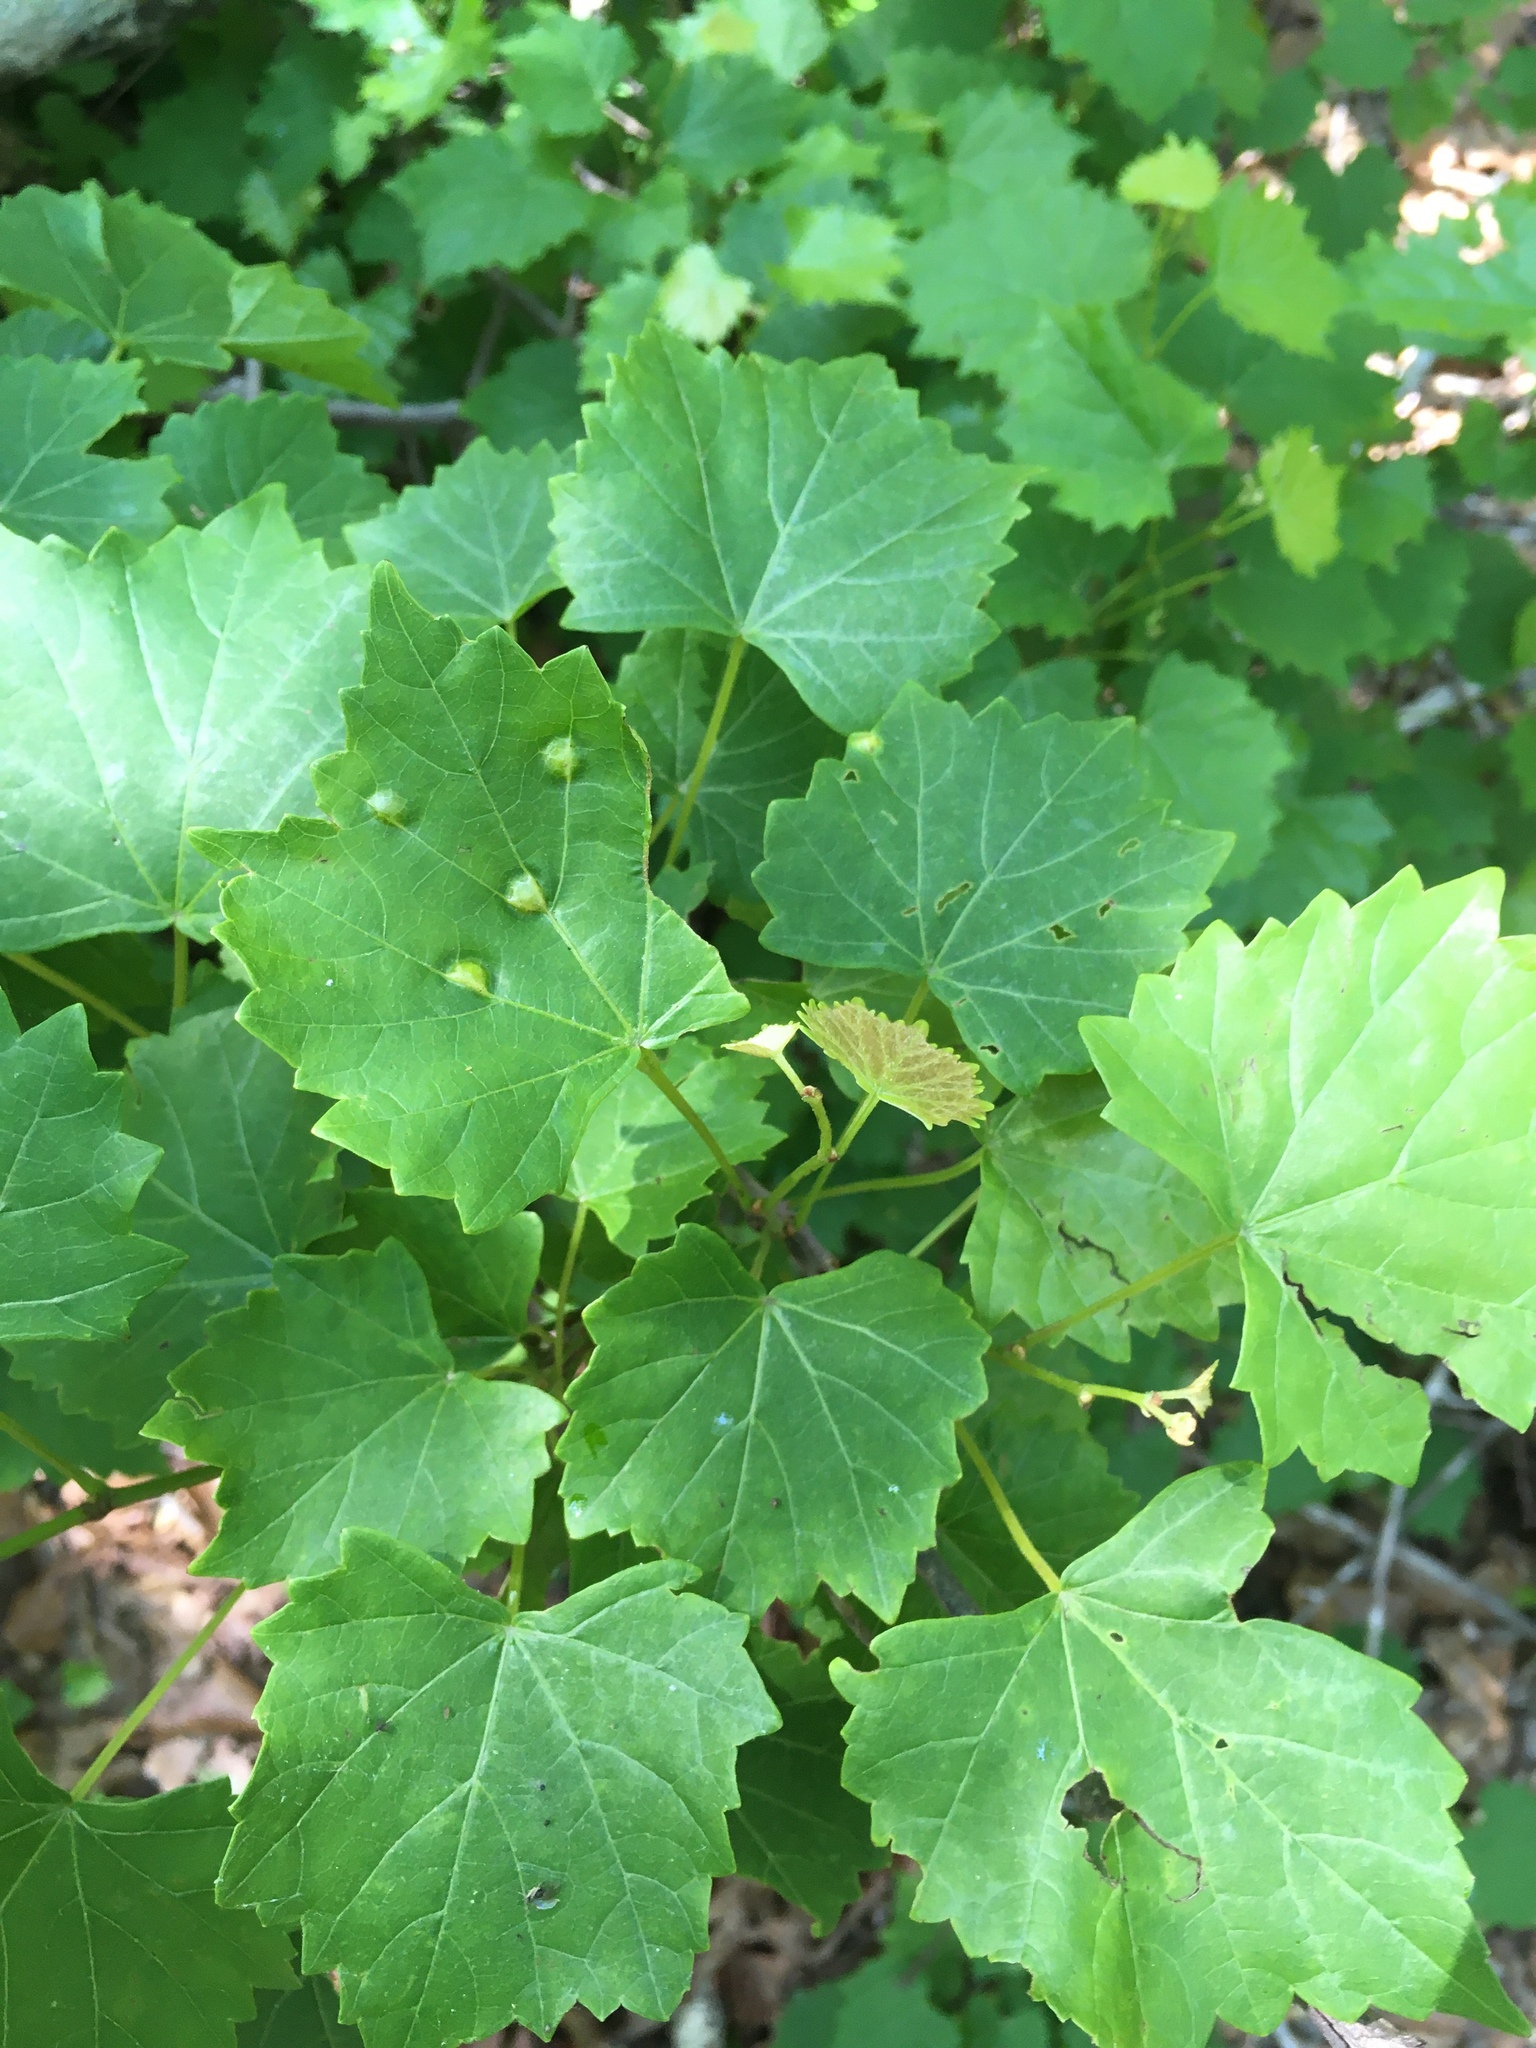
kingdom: Plantae
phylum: Tracheophyta
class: Magnoliopsida
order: Vitales
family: Vitaceae
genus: Vitis
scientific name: Vitis rotundifolia
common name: Muscadine grape
